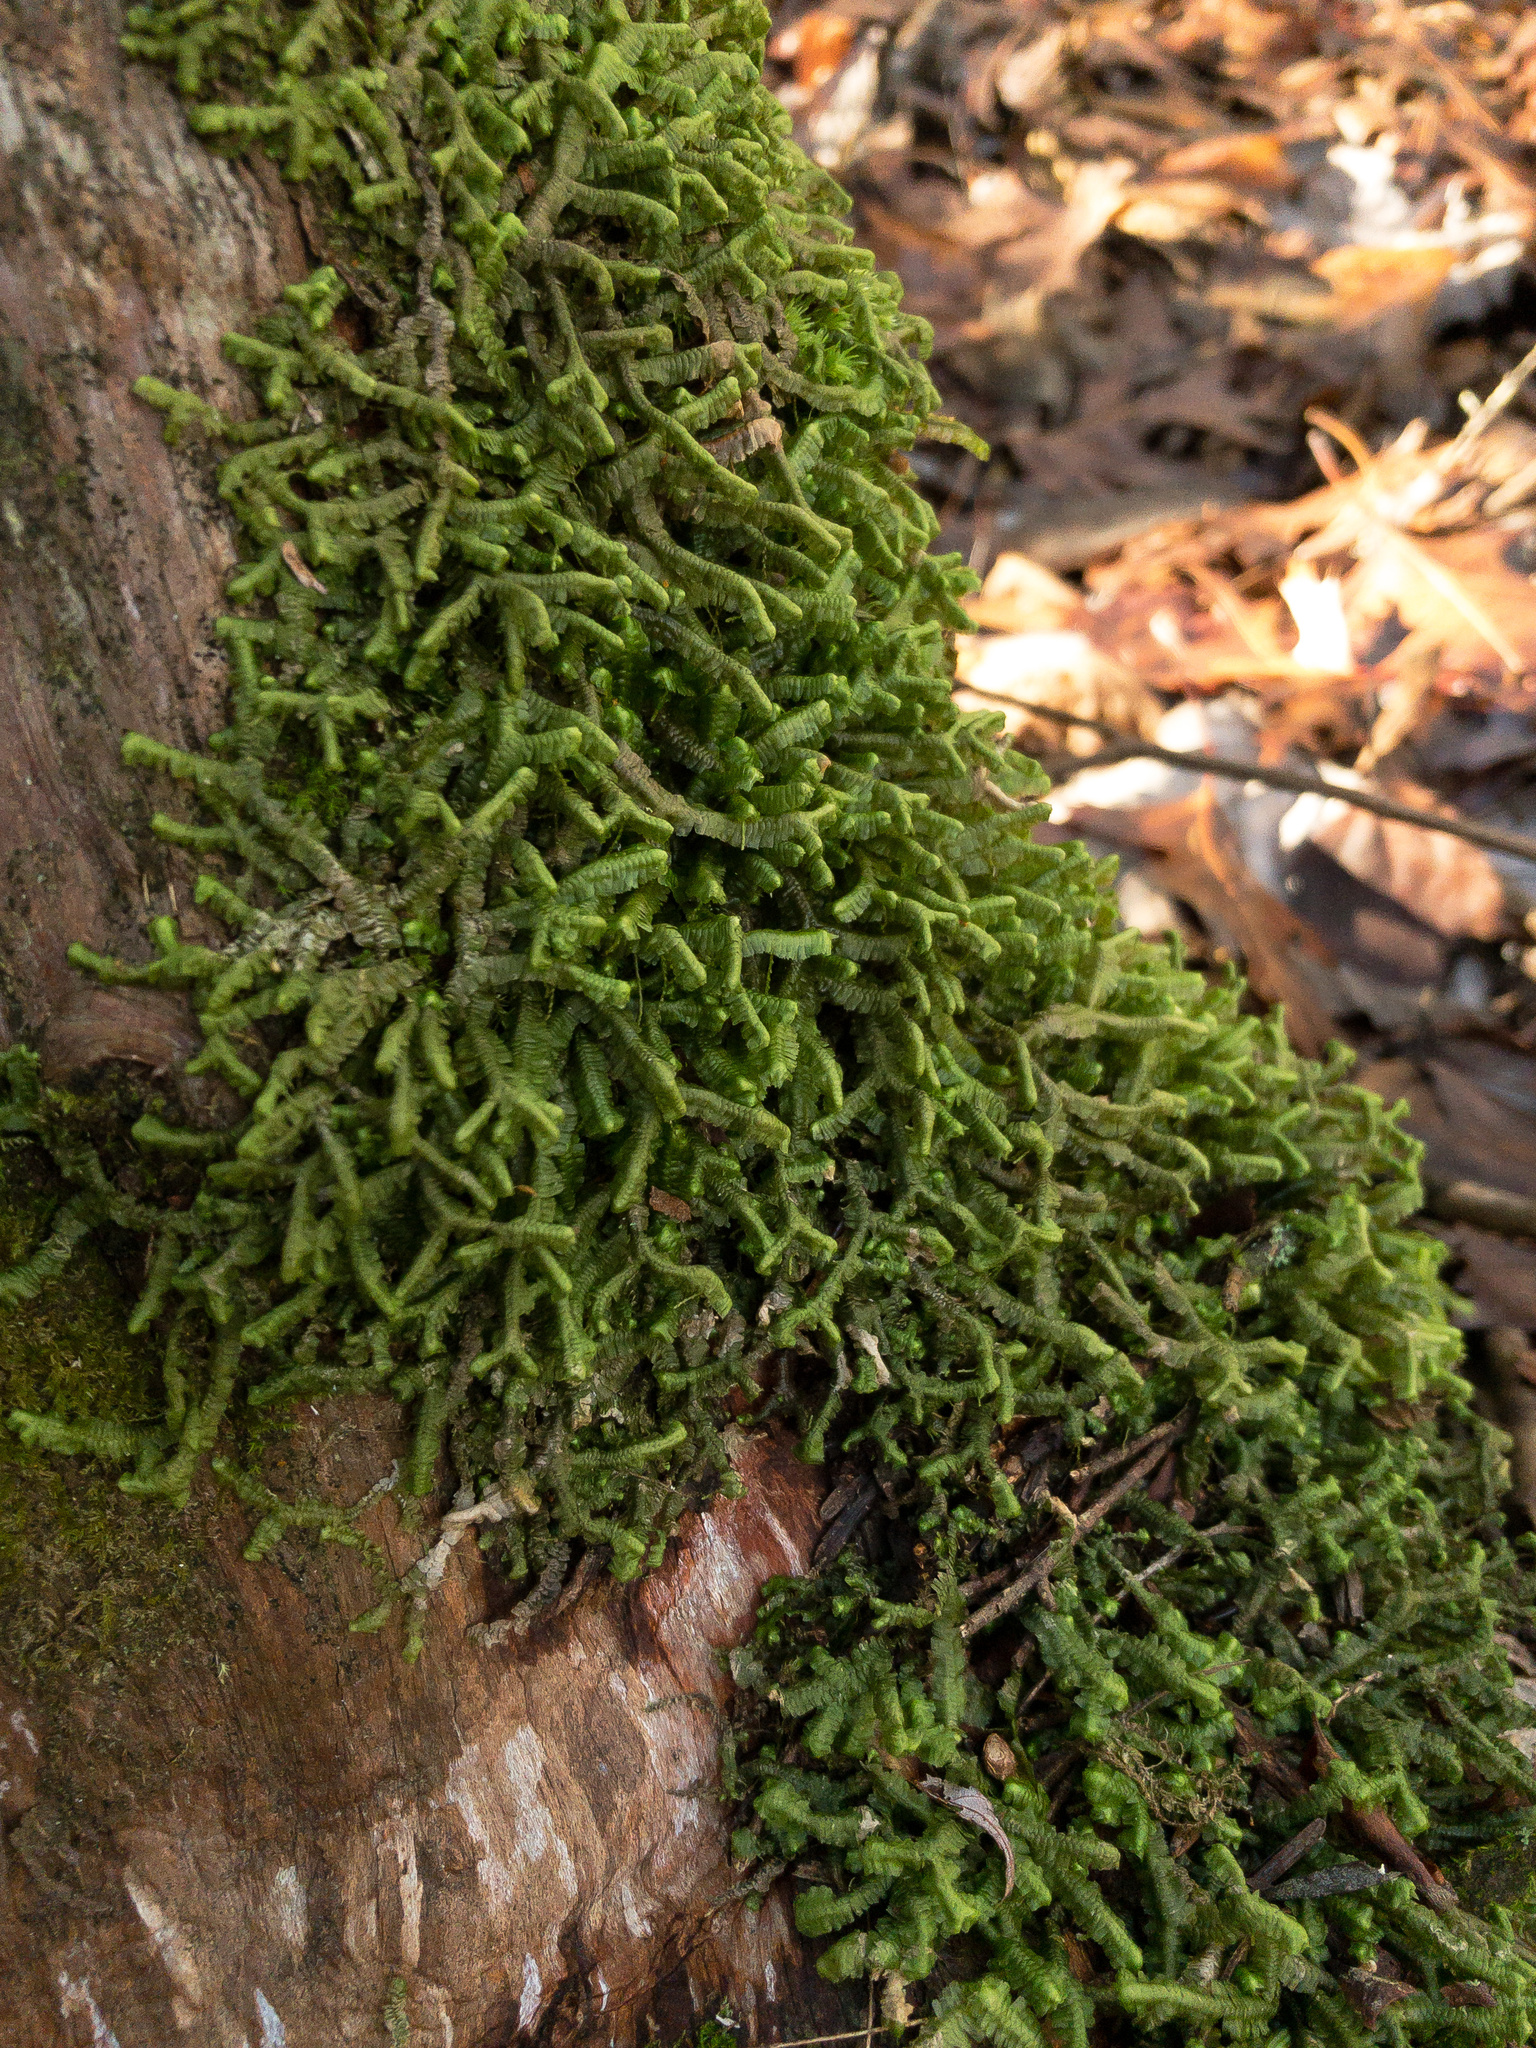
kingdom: Plantae
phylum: Marchantiophyta
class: Jungermanniopsida
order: Jungermanniales
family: Lepidoziaceae
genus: Bazzania
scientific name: Bazzania trilobata
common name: Three-lobed whipwort
